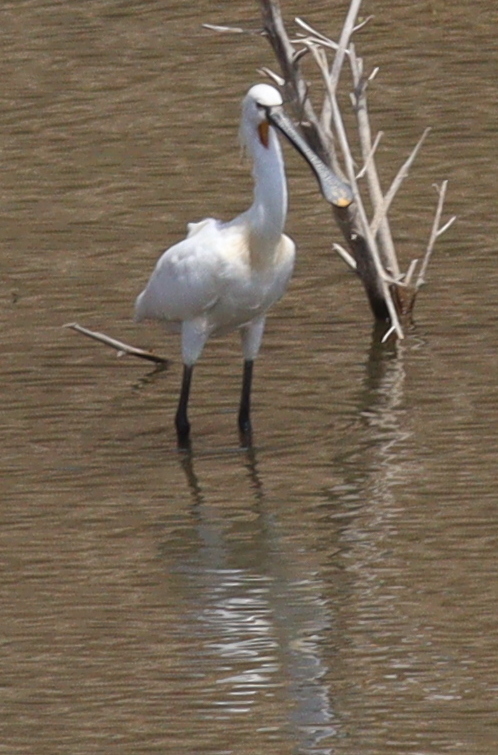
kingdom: Animalia
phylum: Chordata
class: Aves
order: Pelecaniformes
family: Threskiornithidae
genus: Platalea
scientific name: Platalea leucorodia
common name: Eurasian spoonbill
